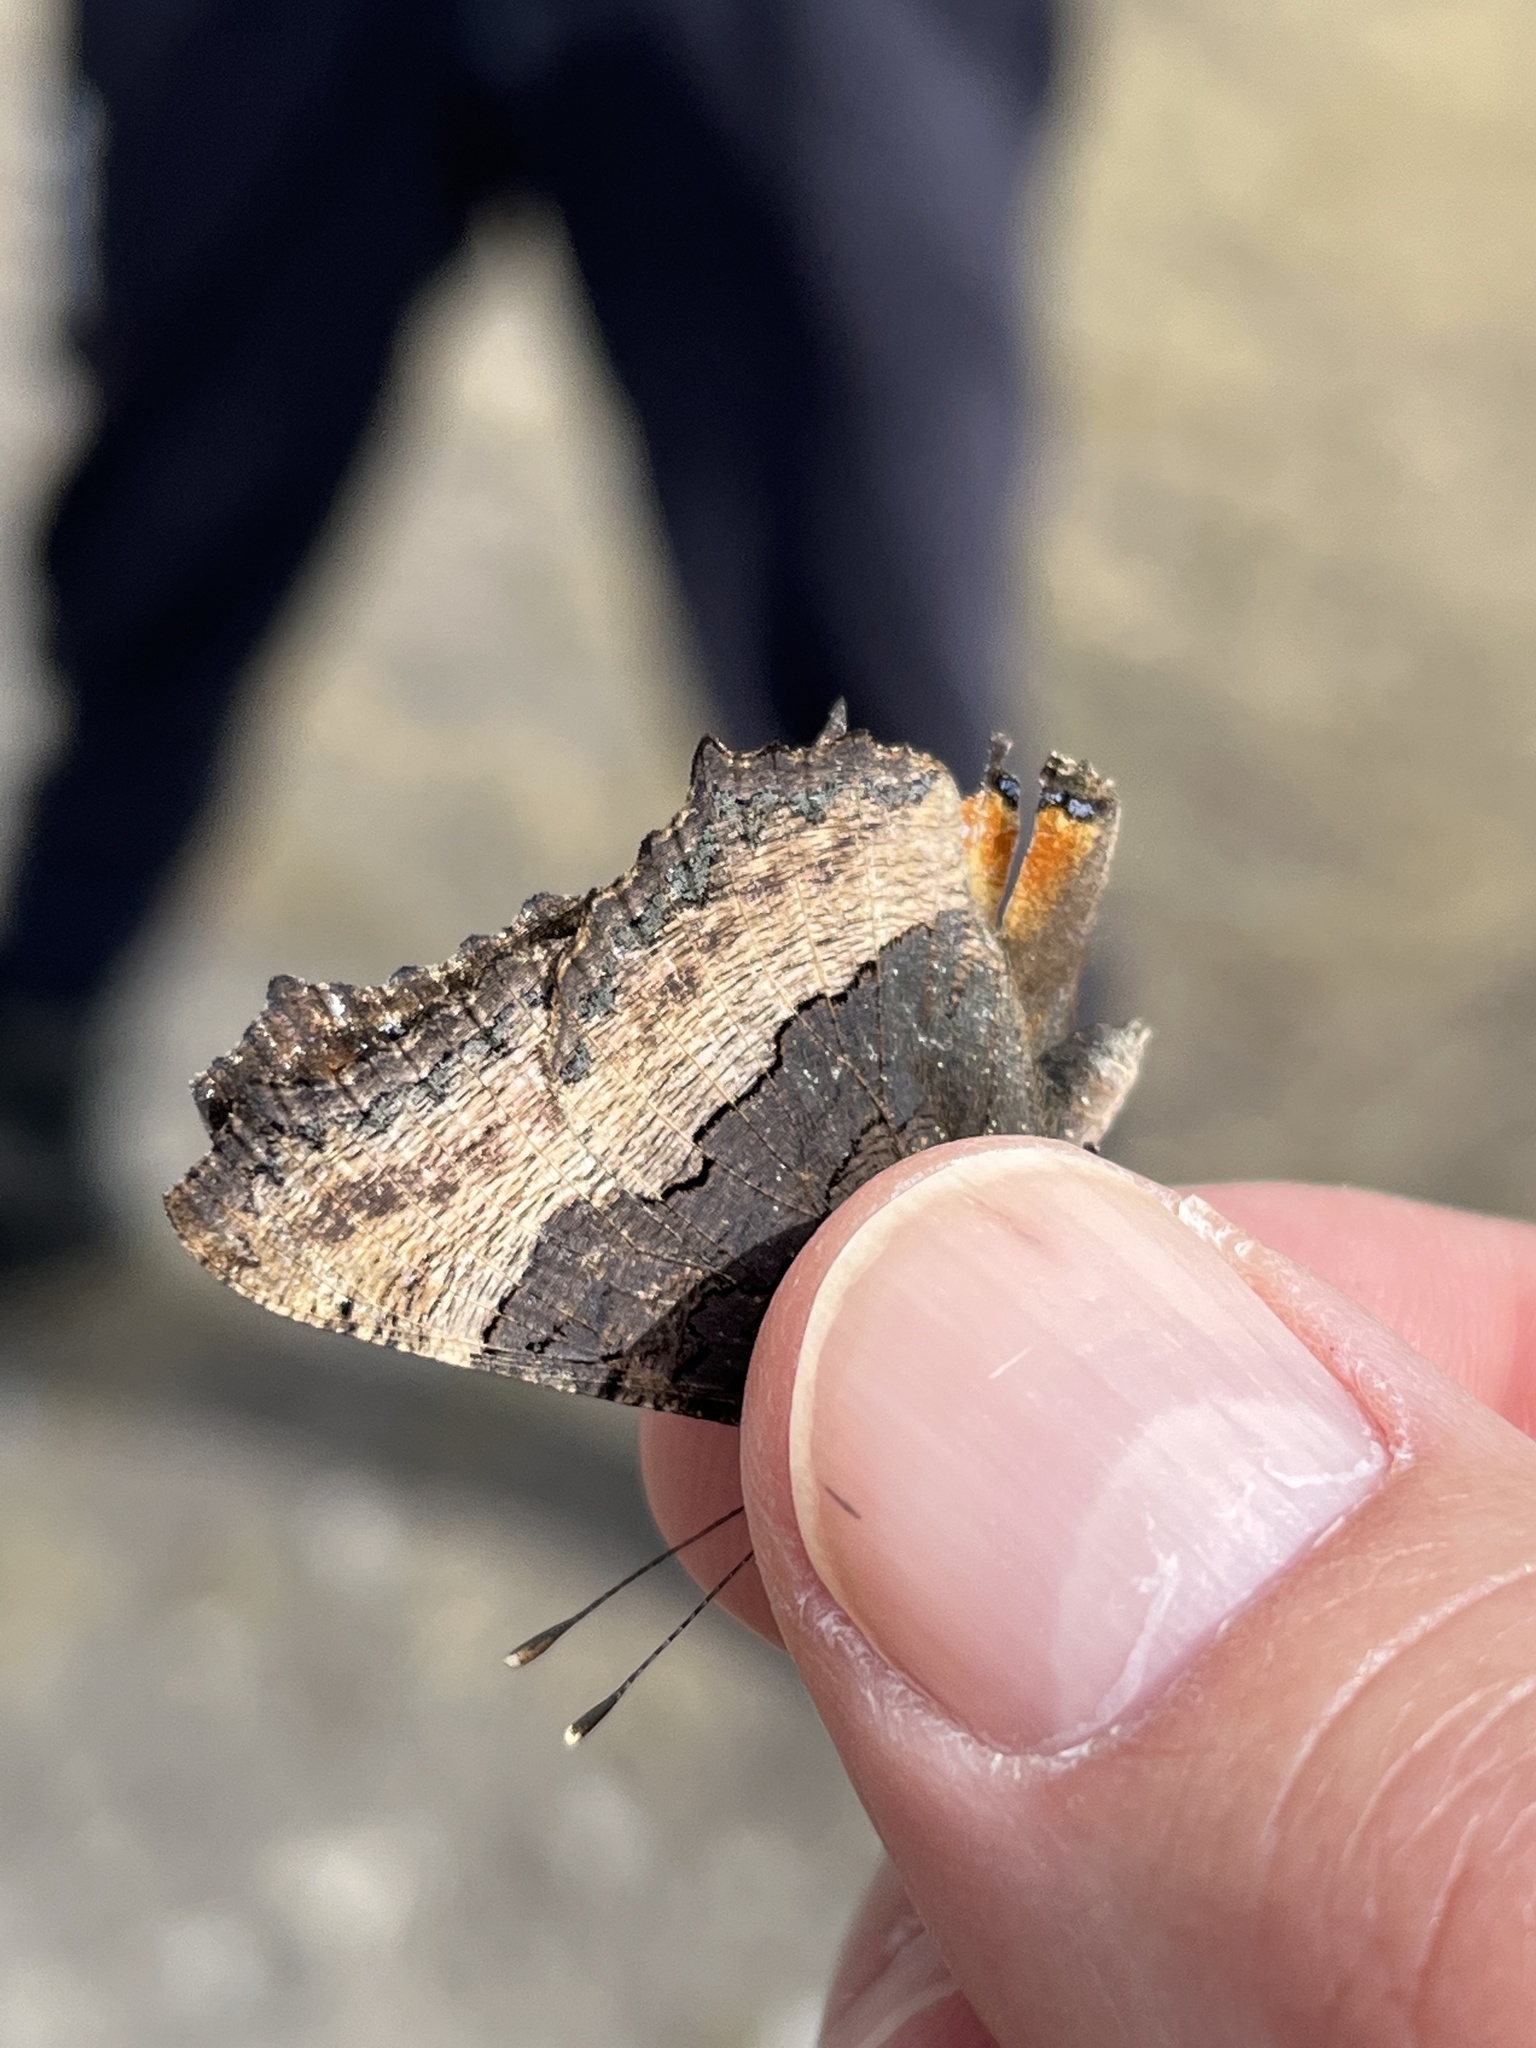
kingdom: Animalia
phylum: Arthropoda
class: Insecta
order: Lepidoptera
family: Nymphalidae
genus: Aglais
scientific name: Aglais milberti
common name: Milbert's tortoiseshell
